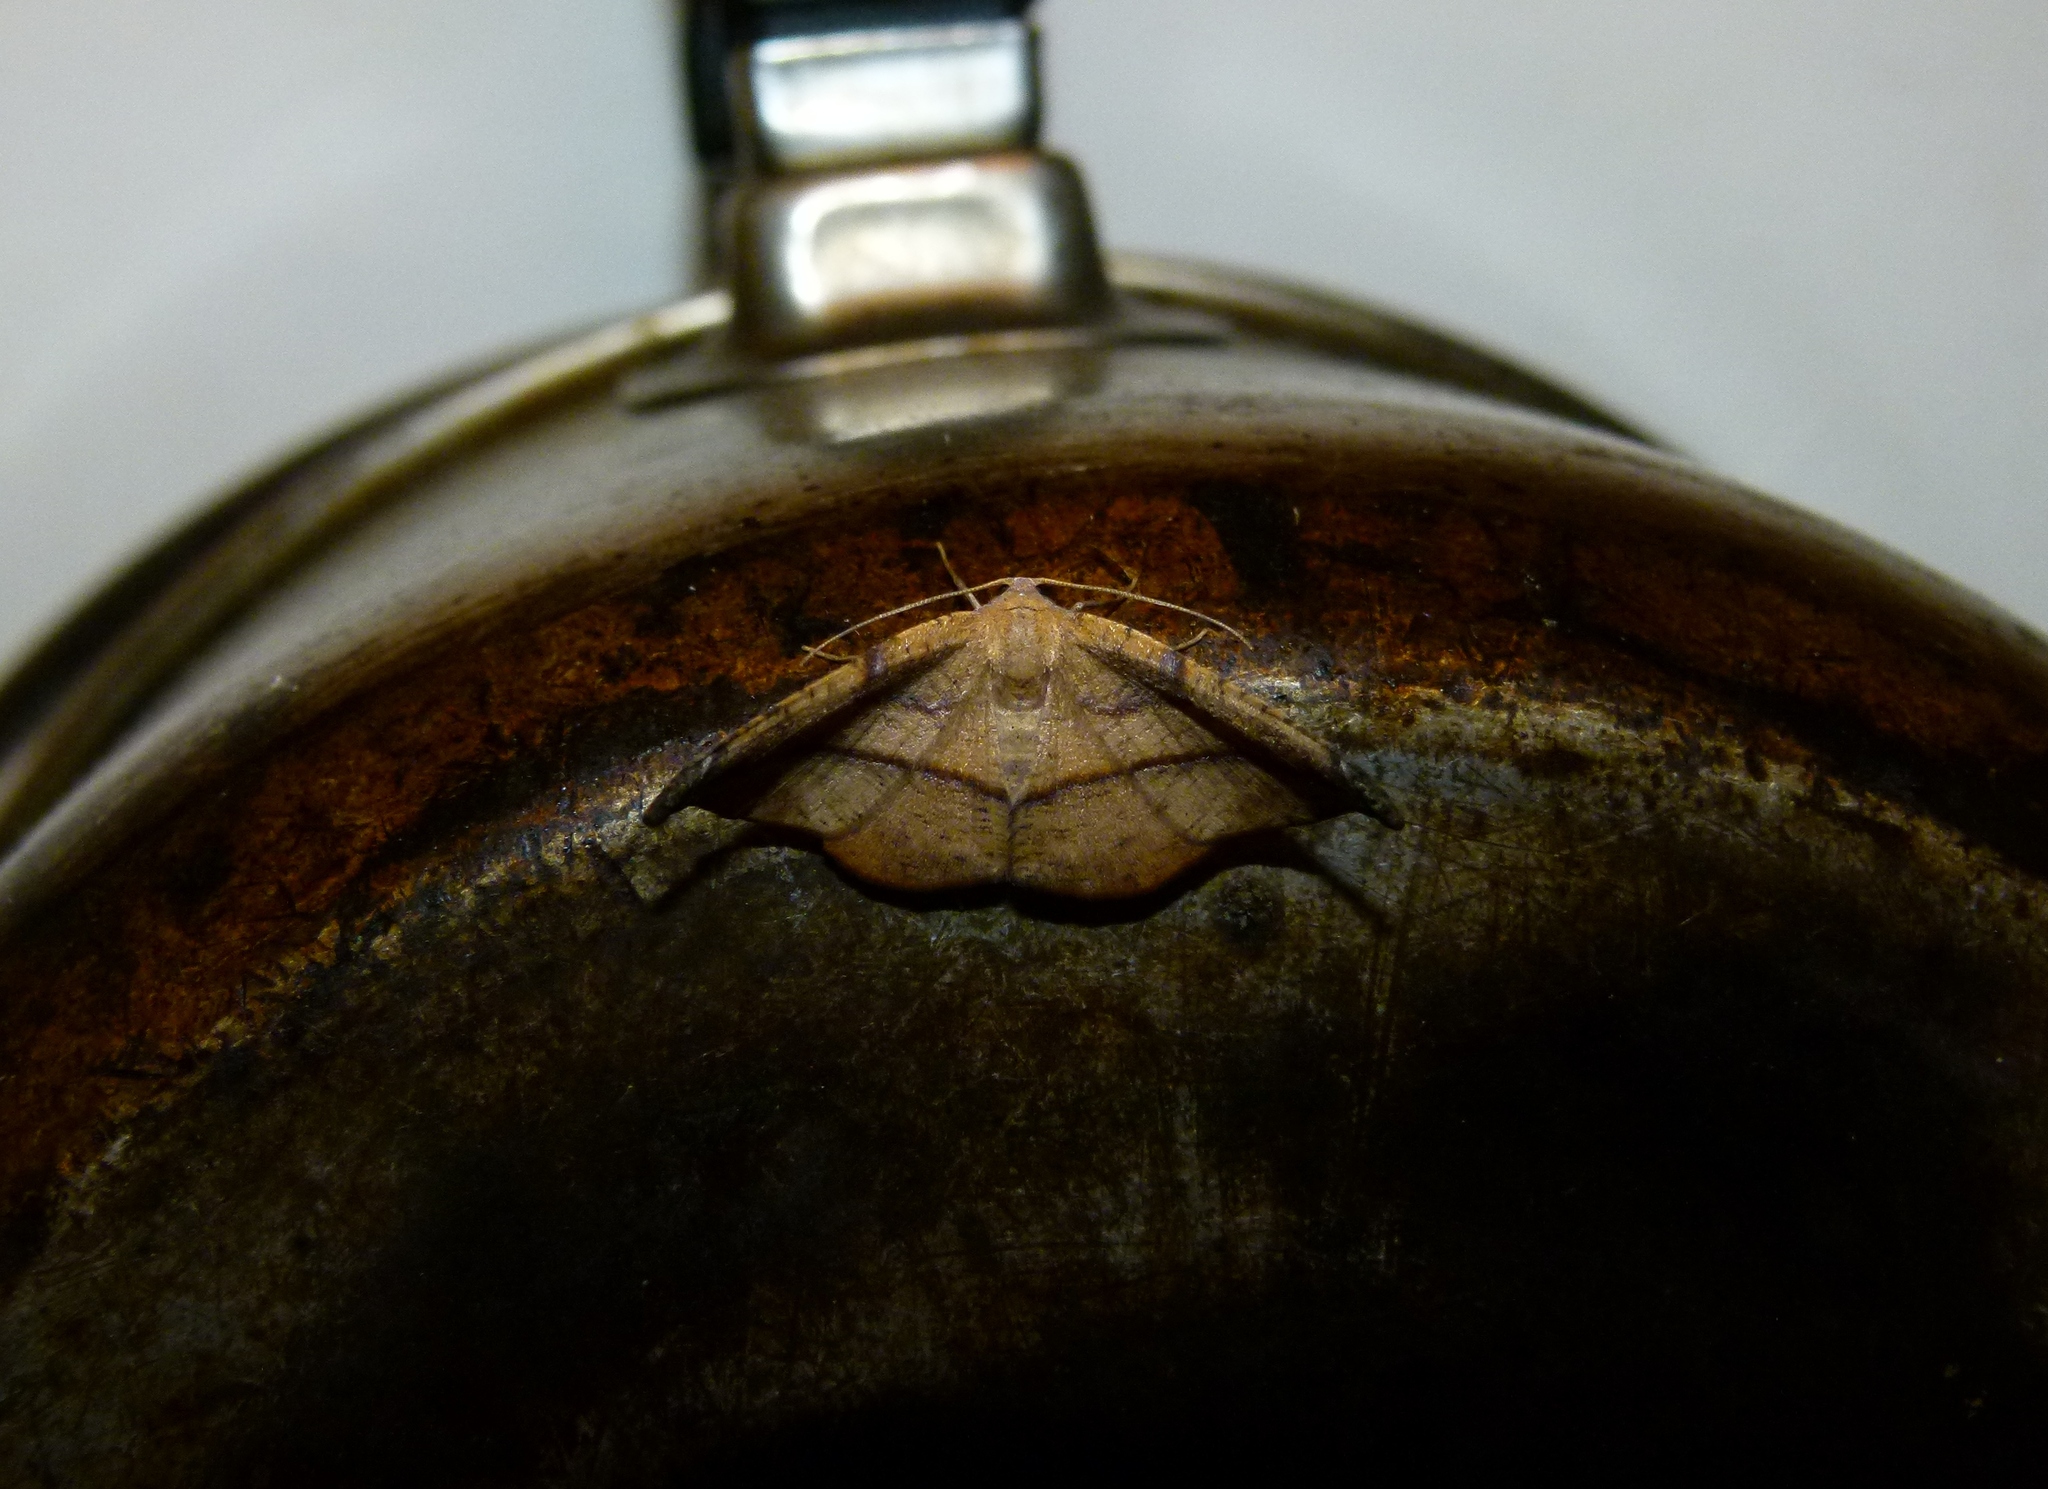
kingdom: Animalia
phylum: Arthropoda
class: Insecta
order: Lepidoptera
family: Geometridae
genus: Patalene
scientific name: Patalene olyzonaria
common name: Juniper geometer moth
